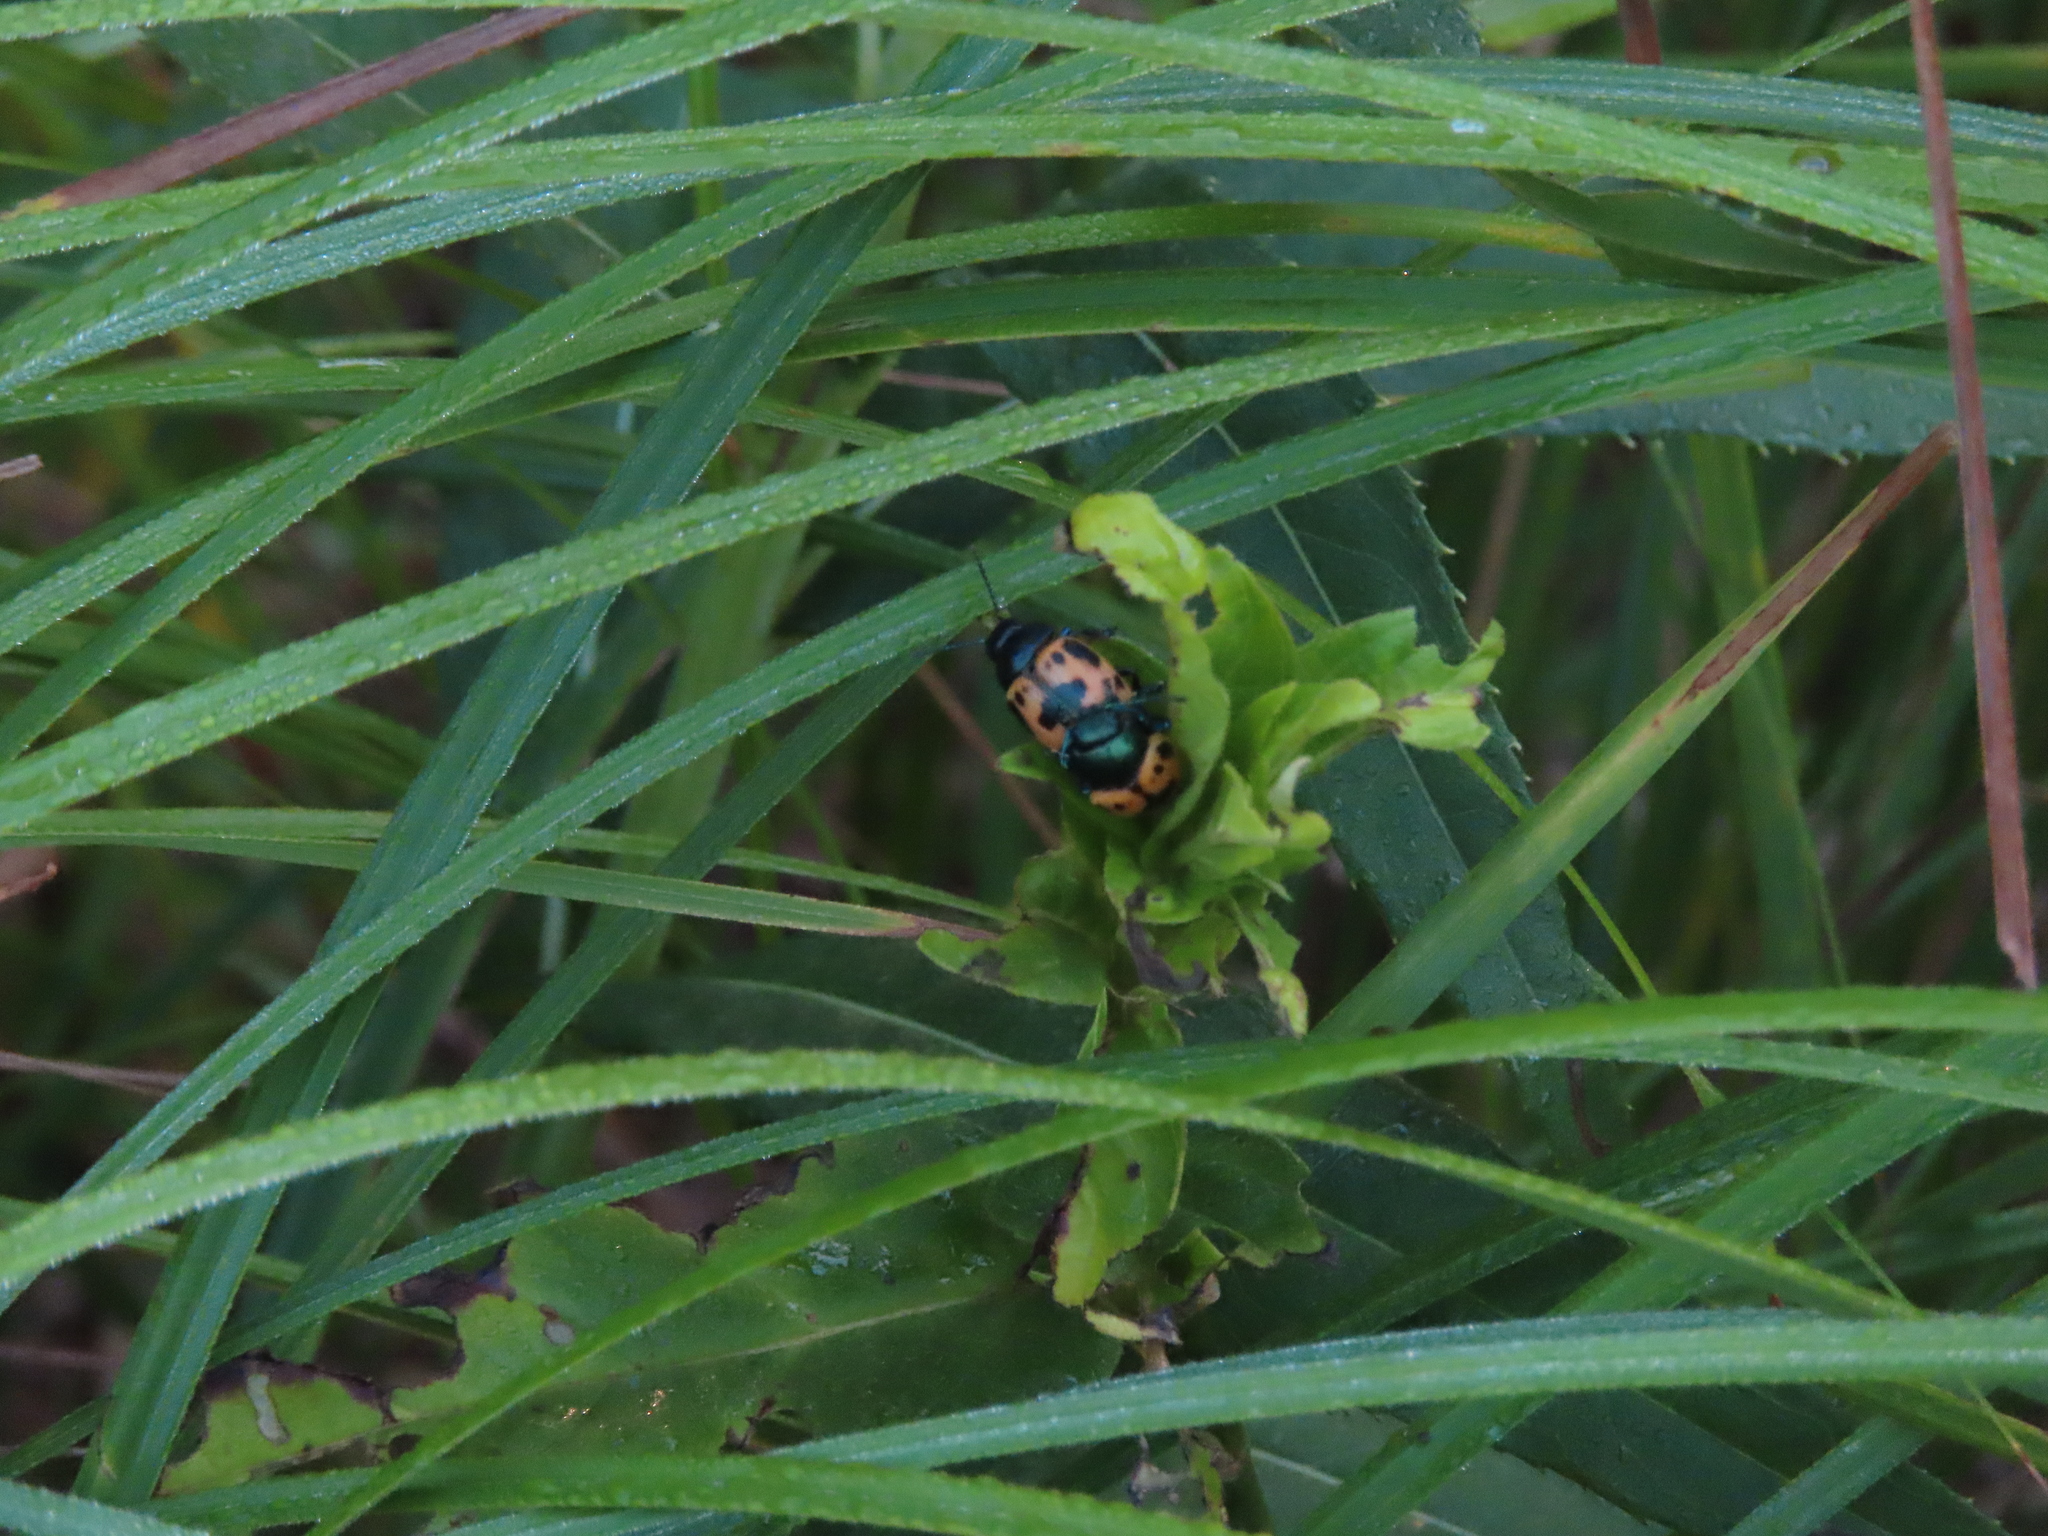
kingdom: Animalia
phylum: Arthropoda
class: Insecta
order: Coleoptera
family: Chrysomelidae
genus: Labidomera
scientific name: Labidomera clivicollis
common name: Swamp milkweed leaf beetle
